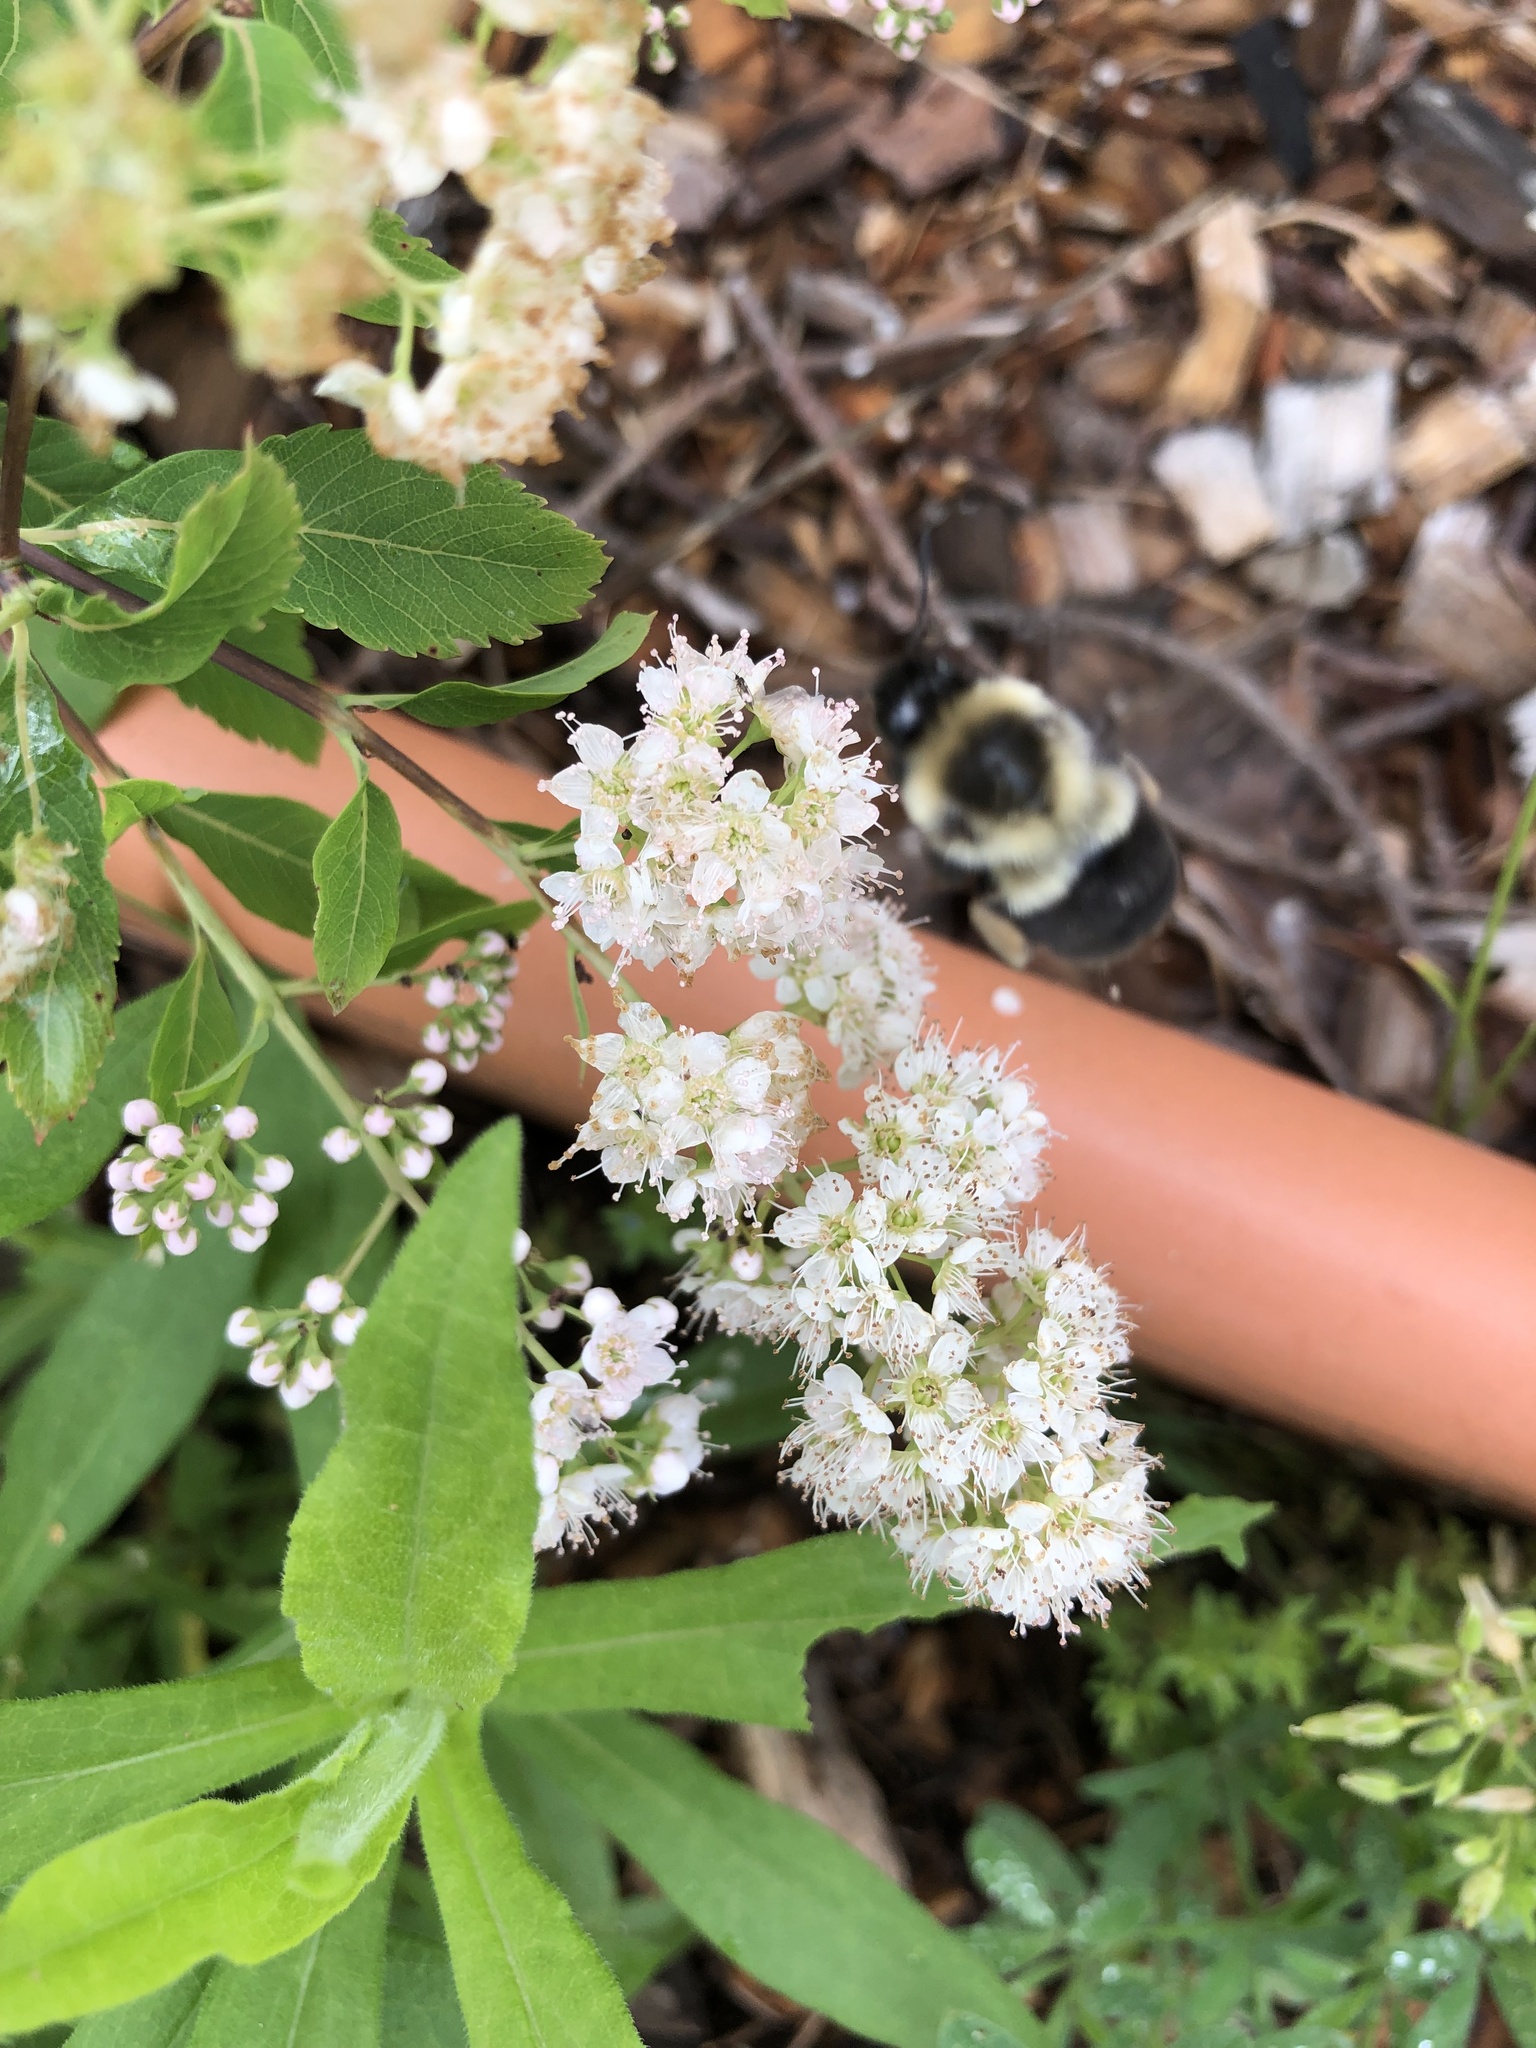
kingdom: Animalia
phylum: Arthropoda
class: Insecta
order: Hymenoptera
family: Apidae
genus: Bombus
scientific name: Bombus impatiens
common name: Common eastern bumble bee
